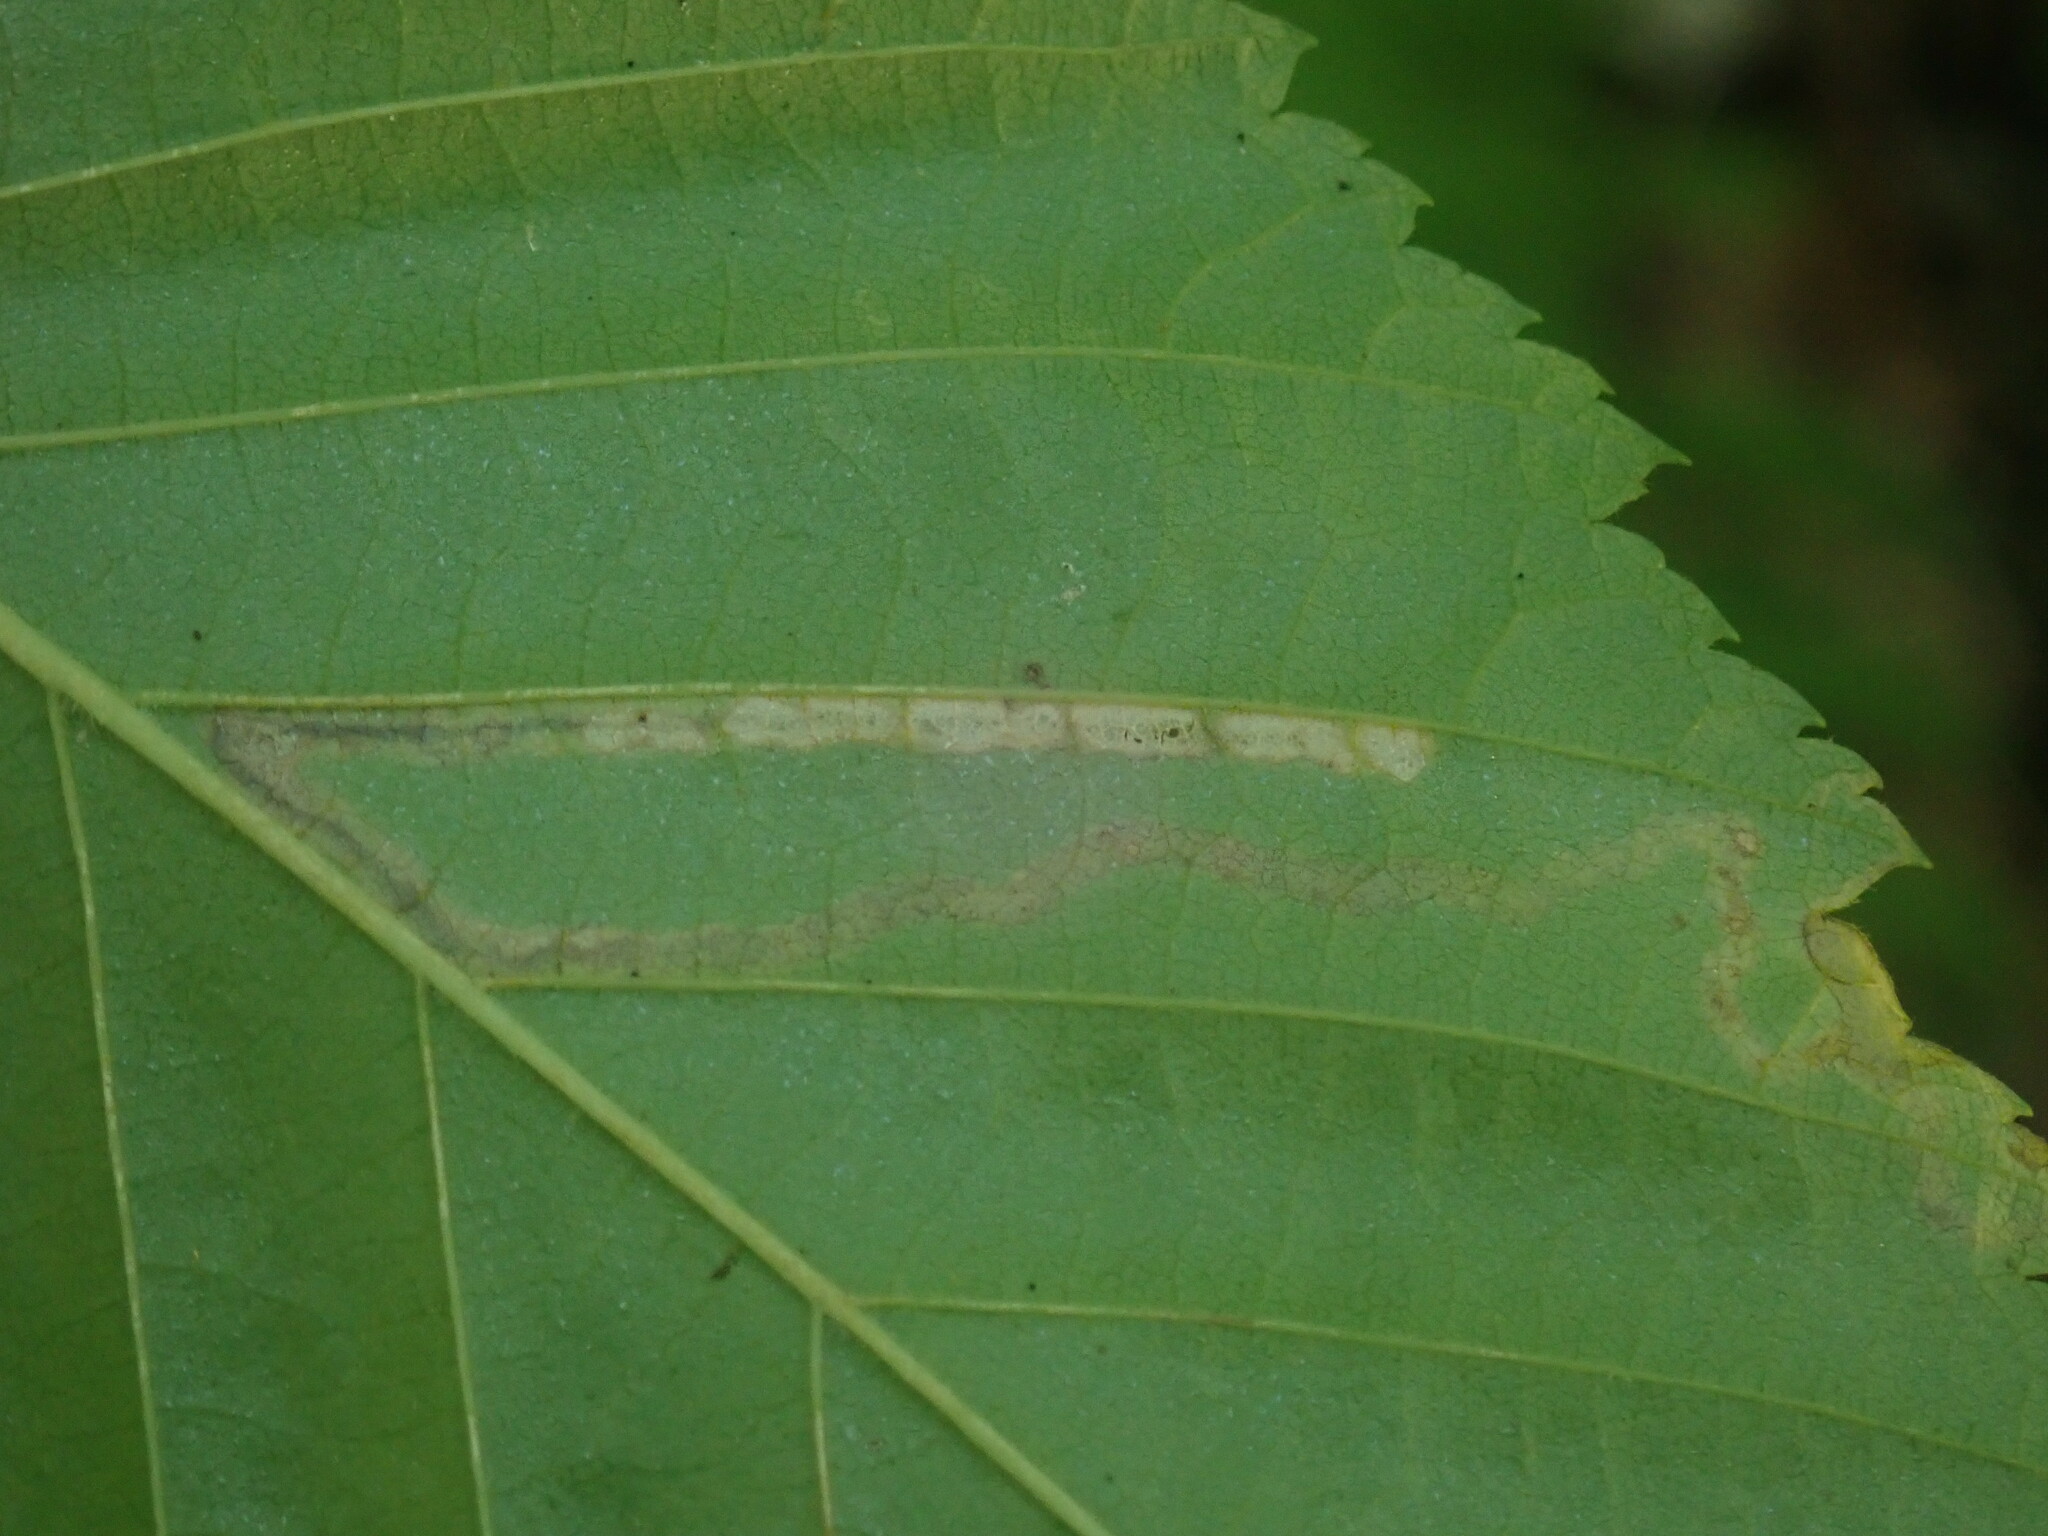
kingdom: Animalia
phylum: Arthropoda
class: Insecta
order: Lepidoptera
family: Nepticulidae
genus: Stigmella
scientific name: Stigmella
